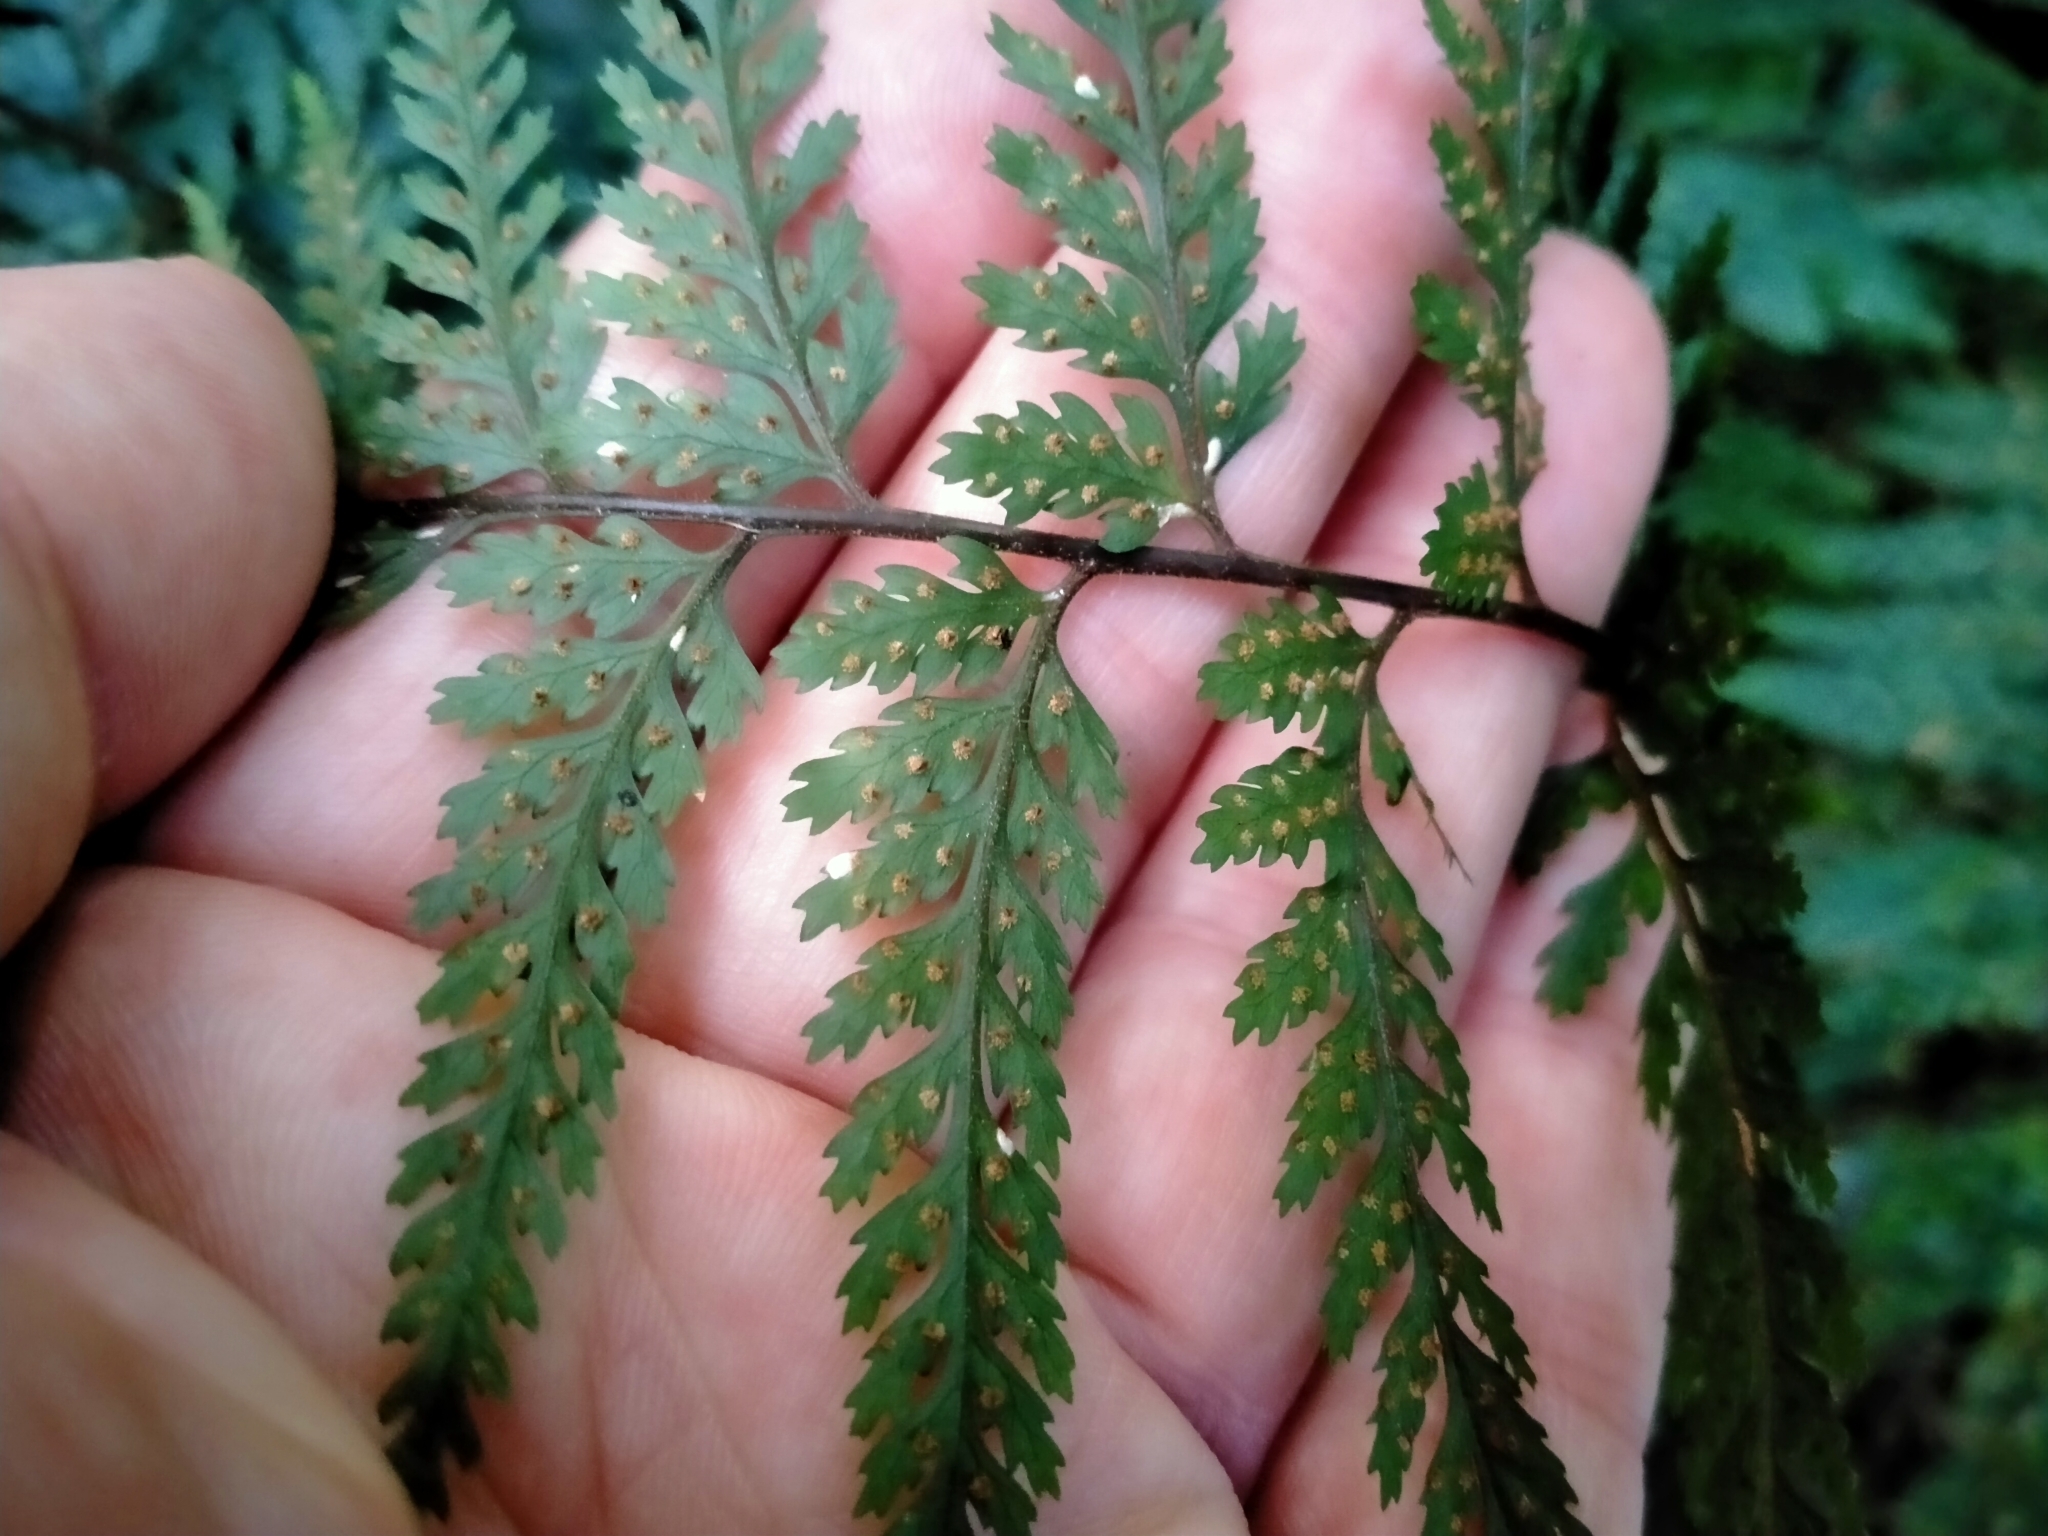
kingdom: Plantae
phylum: Tracheophyta
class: Polypodiopsida
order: Polypodiales
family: Dryopteridaceae
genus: Parapolystichum
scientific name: Parapolystichum glabellum
